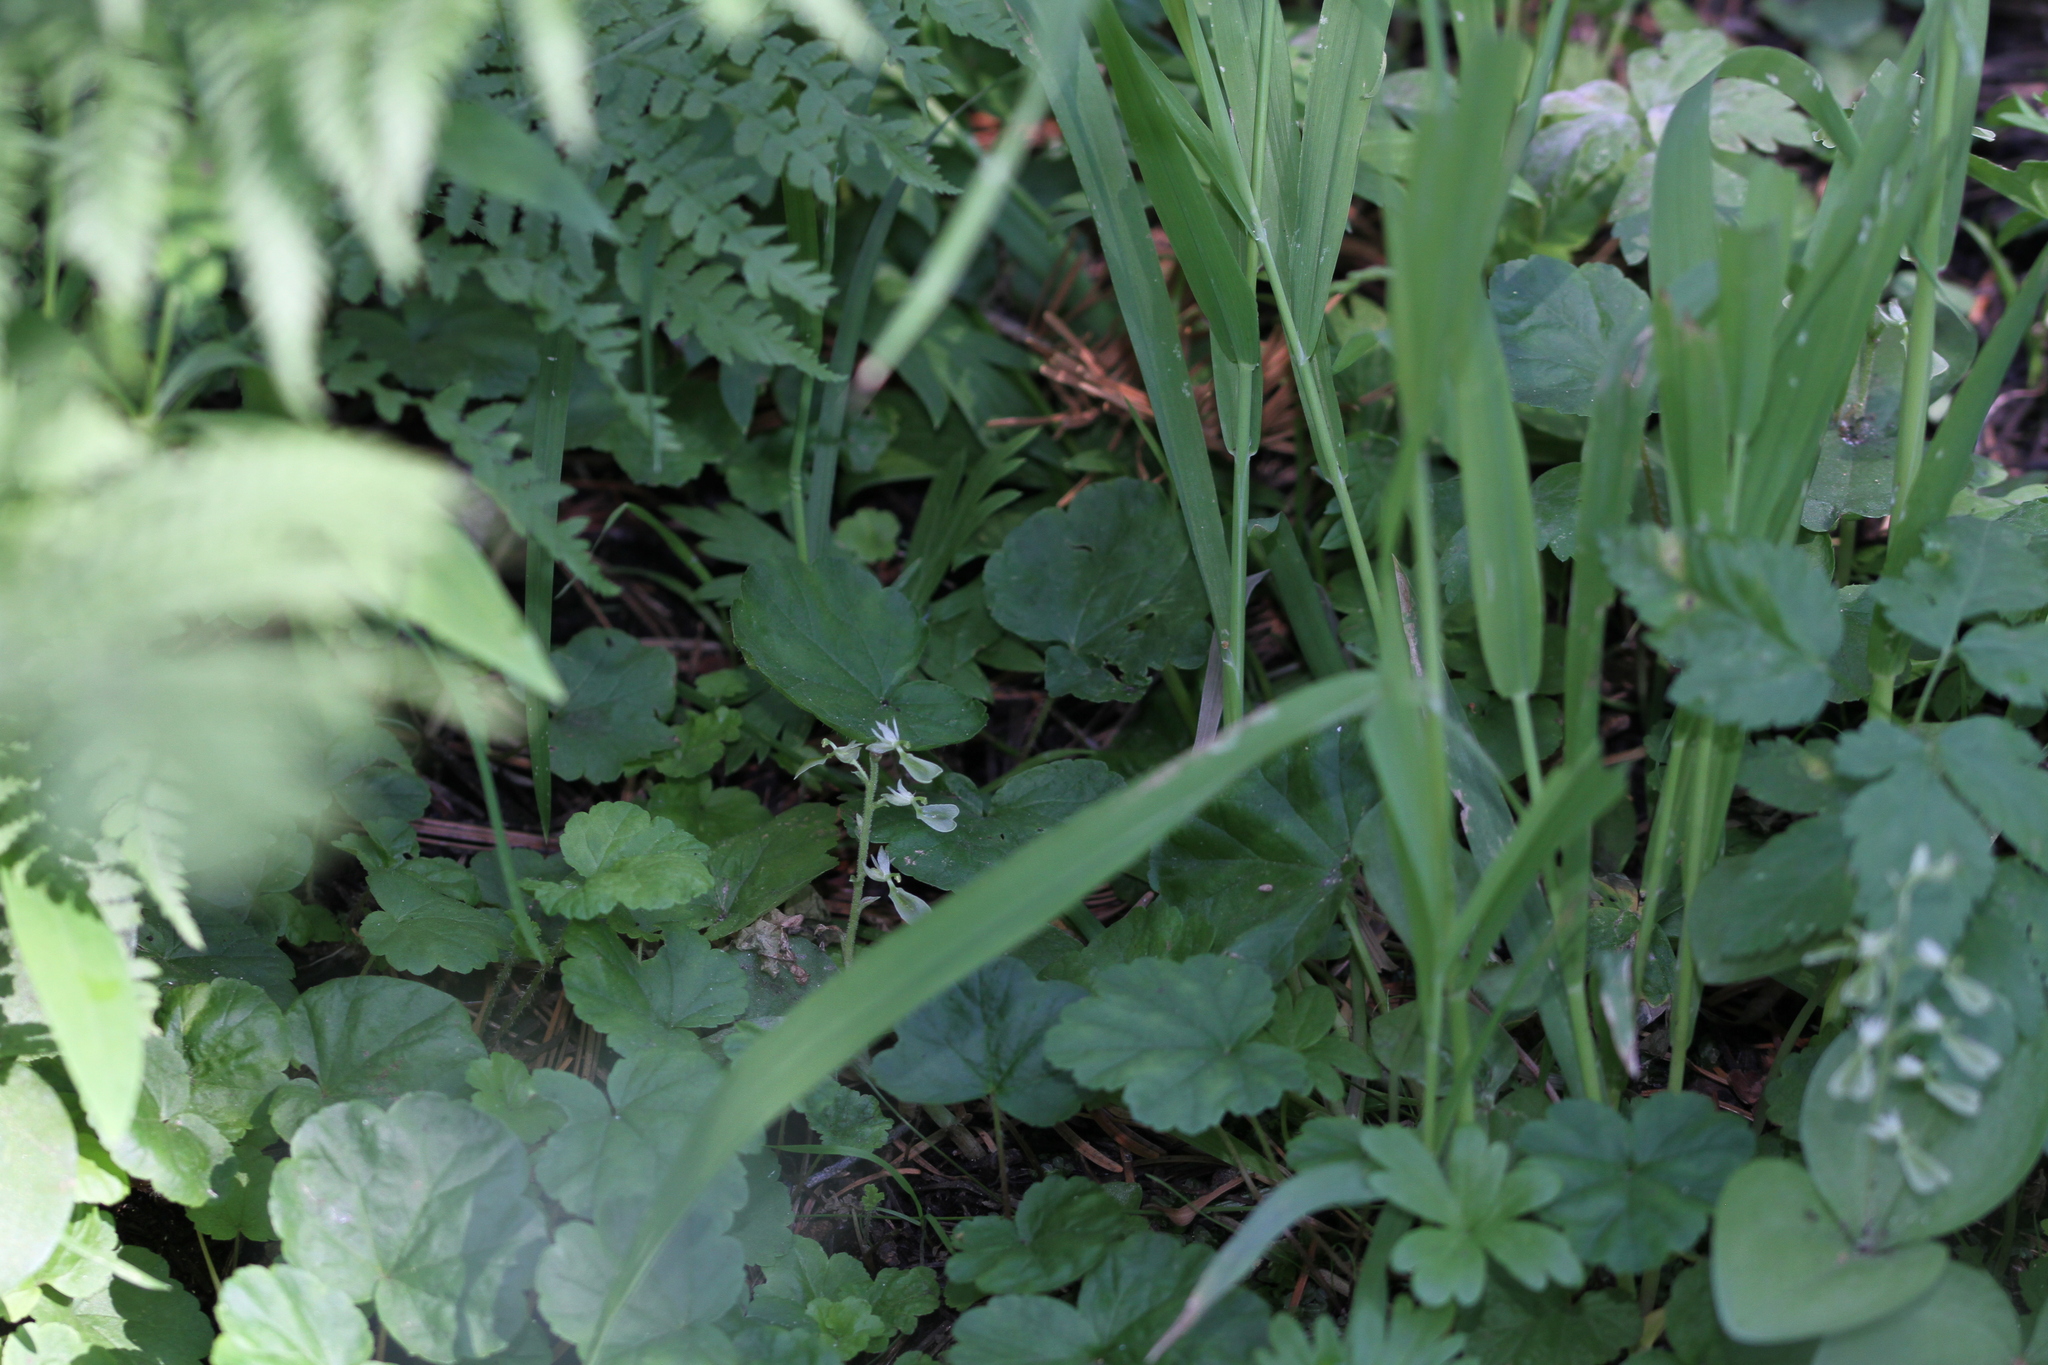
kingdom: Plantae
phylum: Tracheophyta
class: Liliopsida
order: Asparagales
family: Orchidaceae
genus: Neottia
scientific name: Neottia convallarioides
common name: Broadleaf twayblade
